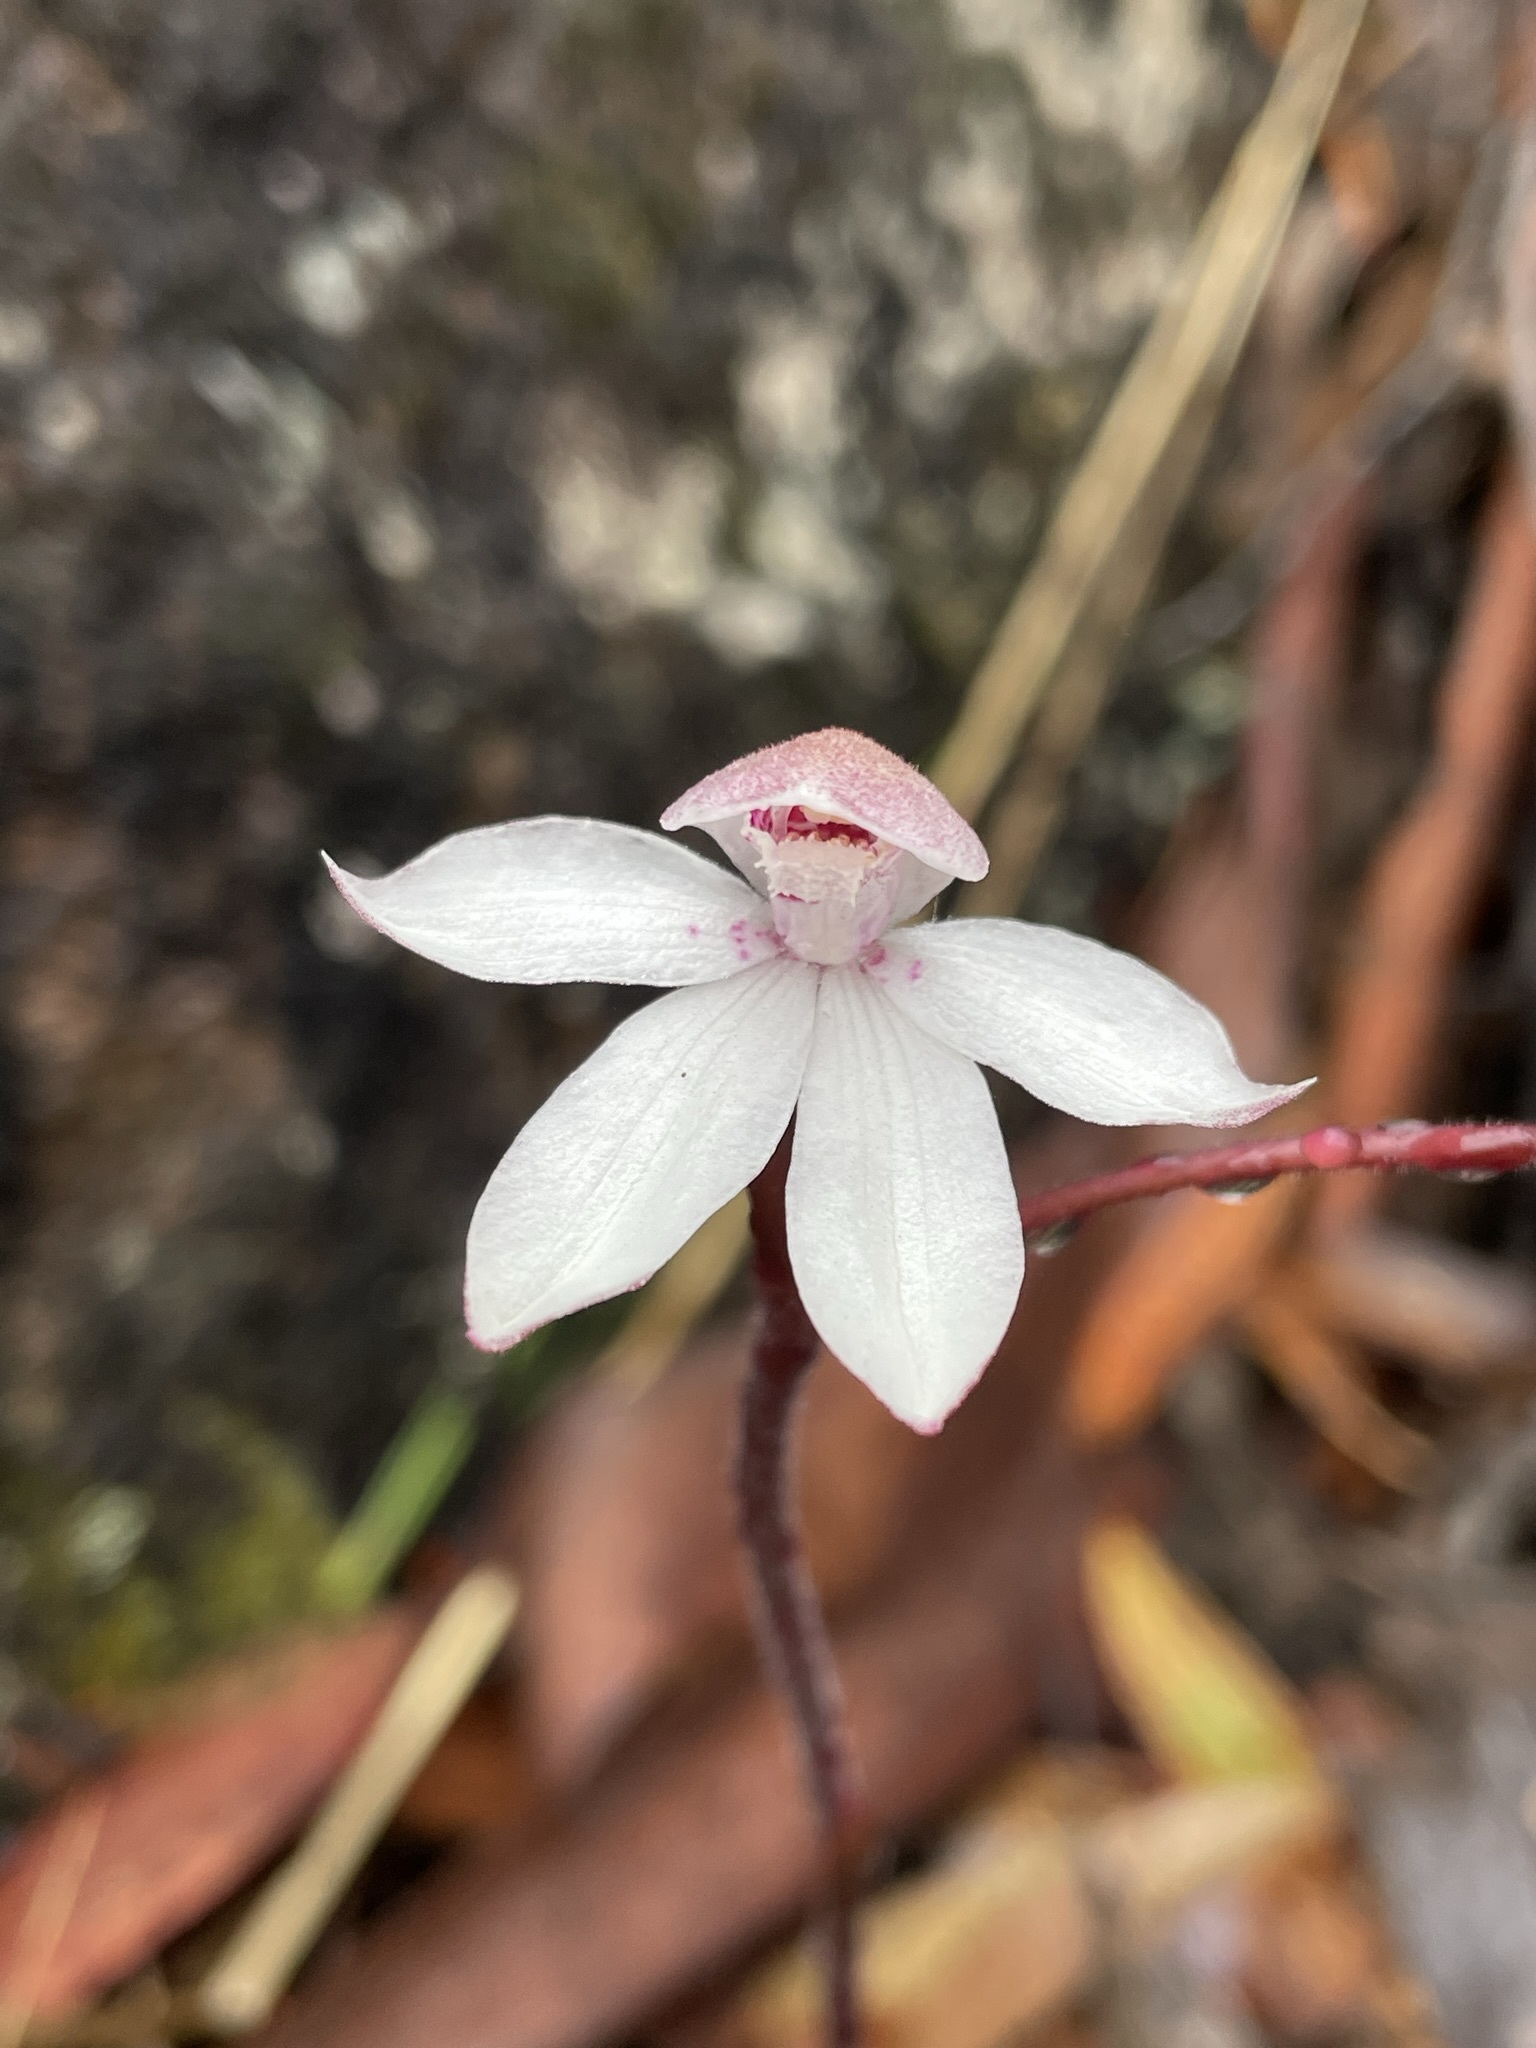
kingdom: Plantae
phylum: Tracheophyta
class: Liliopsida
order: Asparagales
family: Orchidaceae
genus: Caladenia
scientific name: Caladenia alpina
